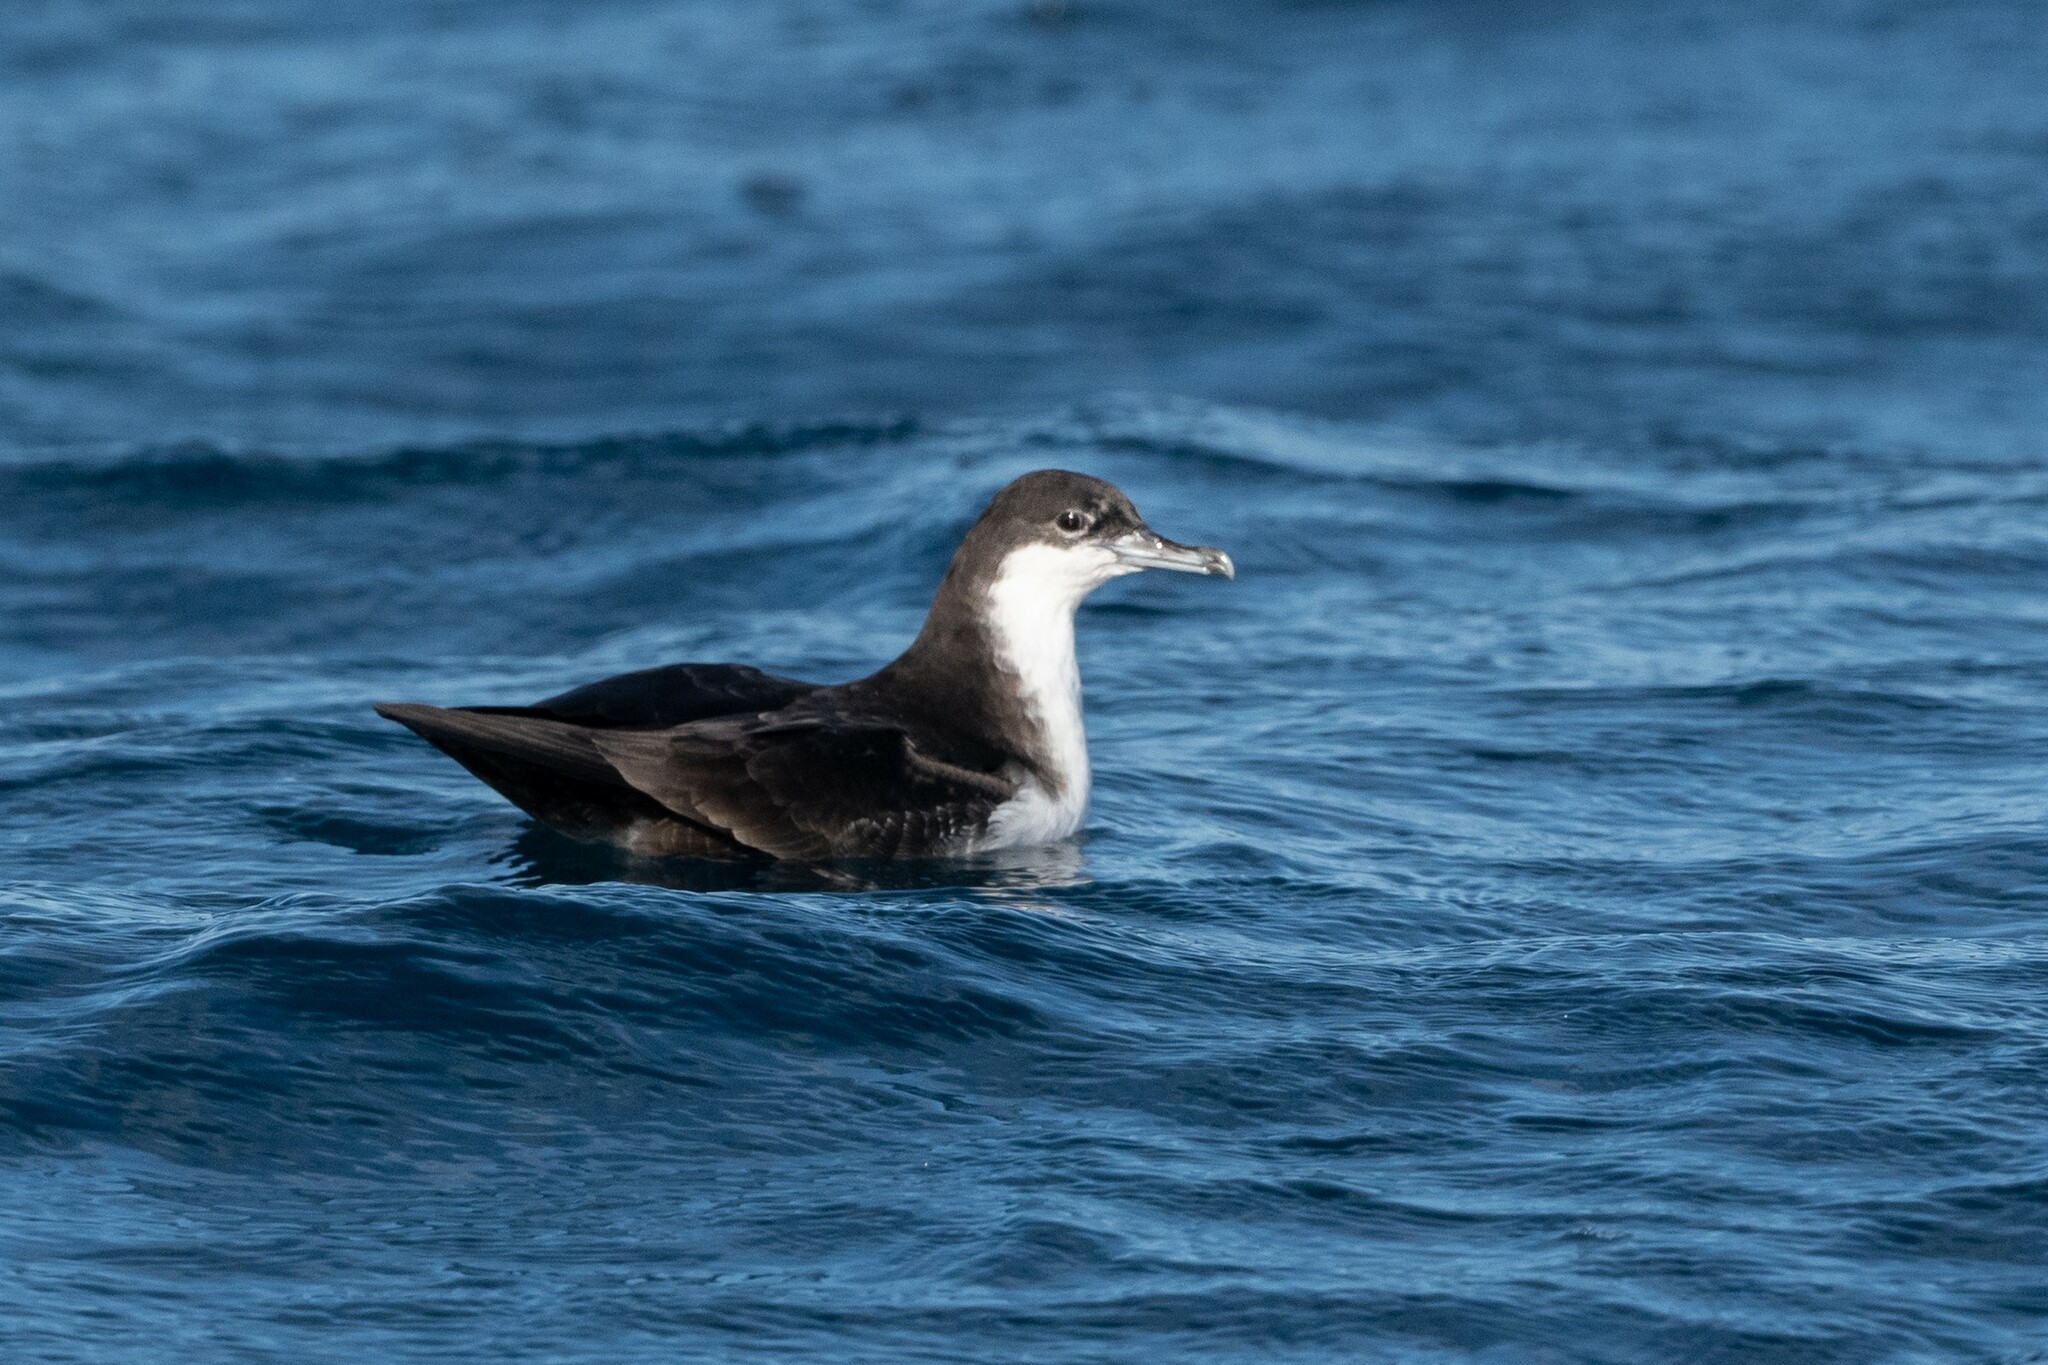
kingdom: Animalia
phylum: Chordata
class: Aves
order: Procellariiformes
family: Procellariidae
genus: Puffinus
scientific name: Puffinus subalaris
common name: Galapagos shearwater
